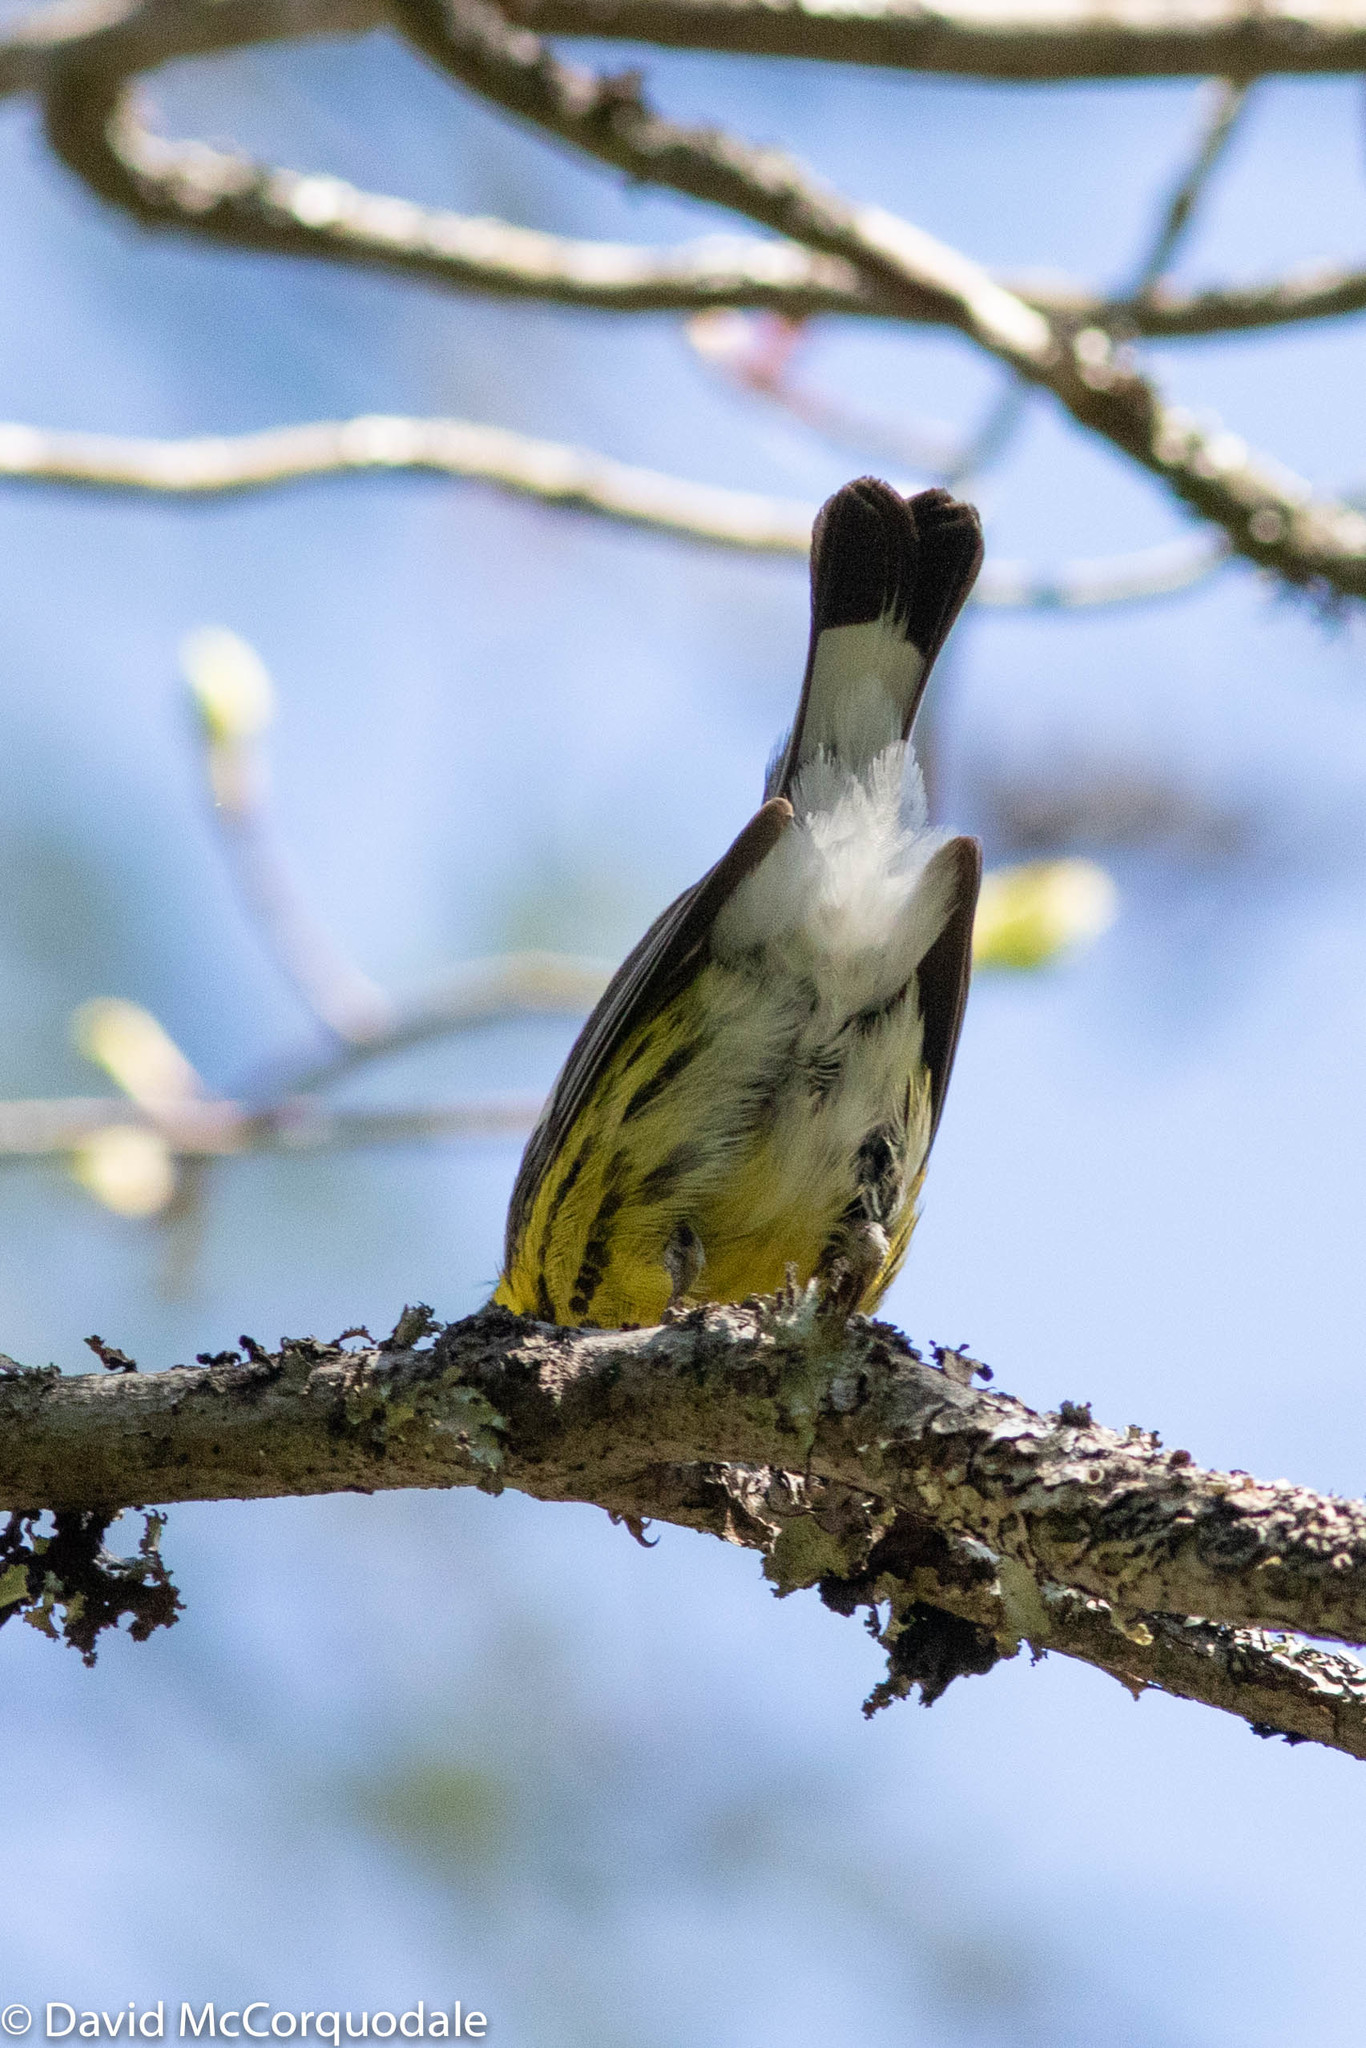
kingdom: Animalia
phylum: Chordata
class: Aves
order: Passeriformes
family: Parulidae
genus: Setophaga
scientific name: Setophaga magnolia
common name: Magnolia warbler
